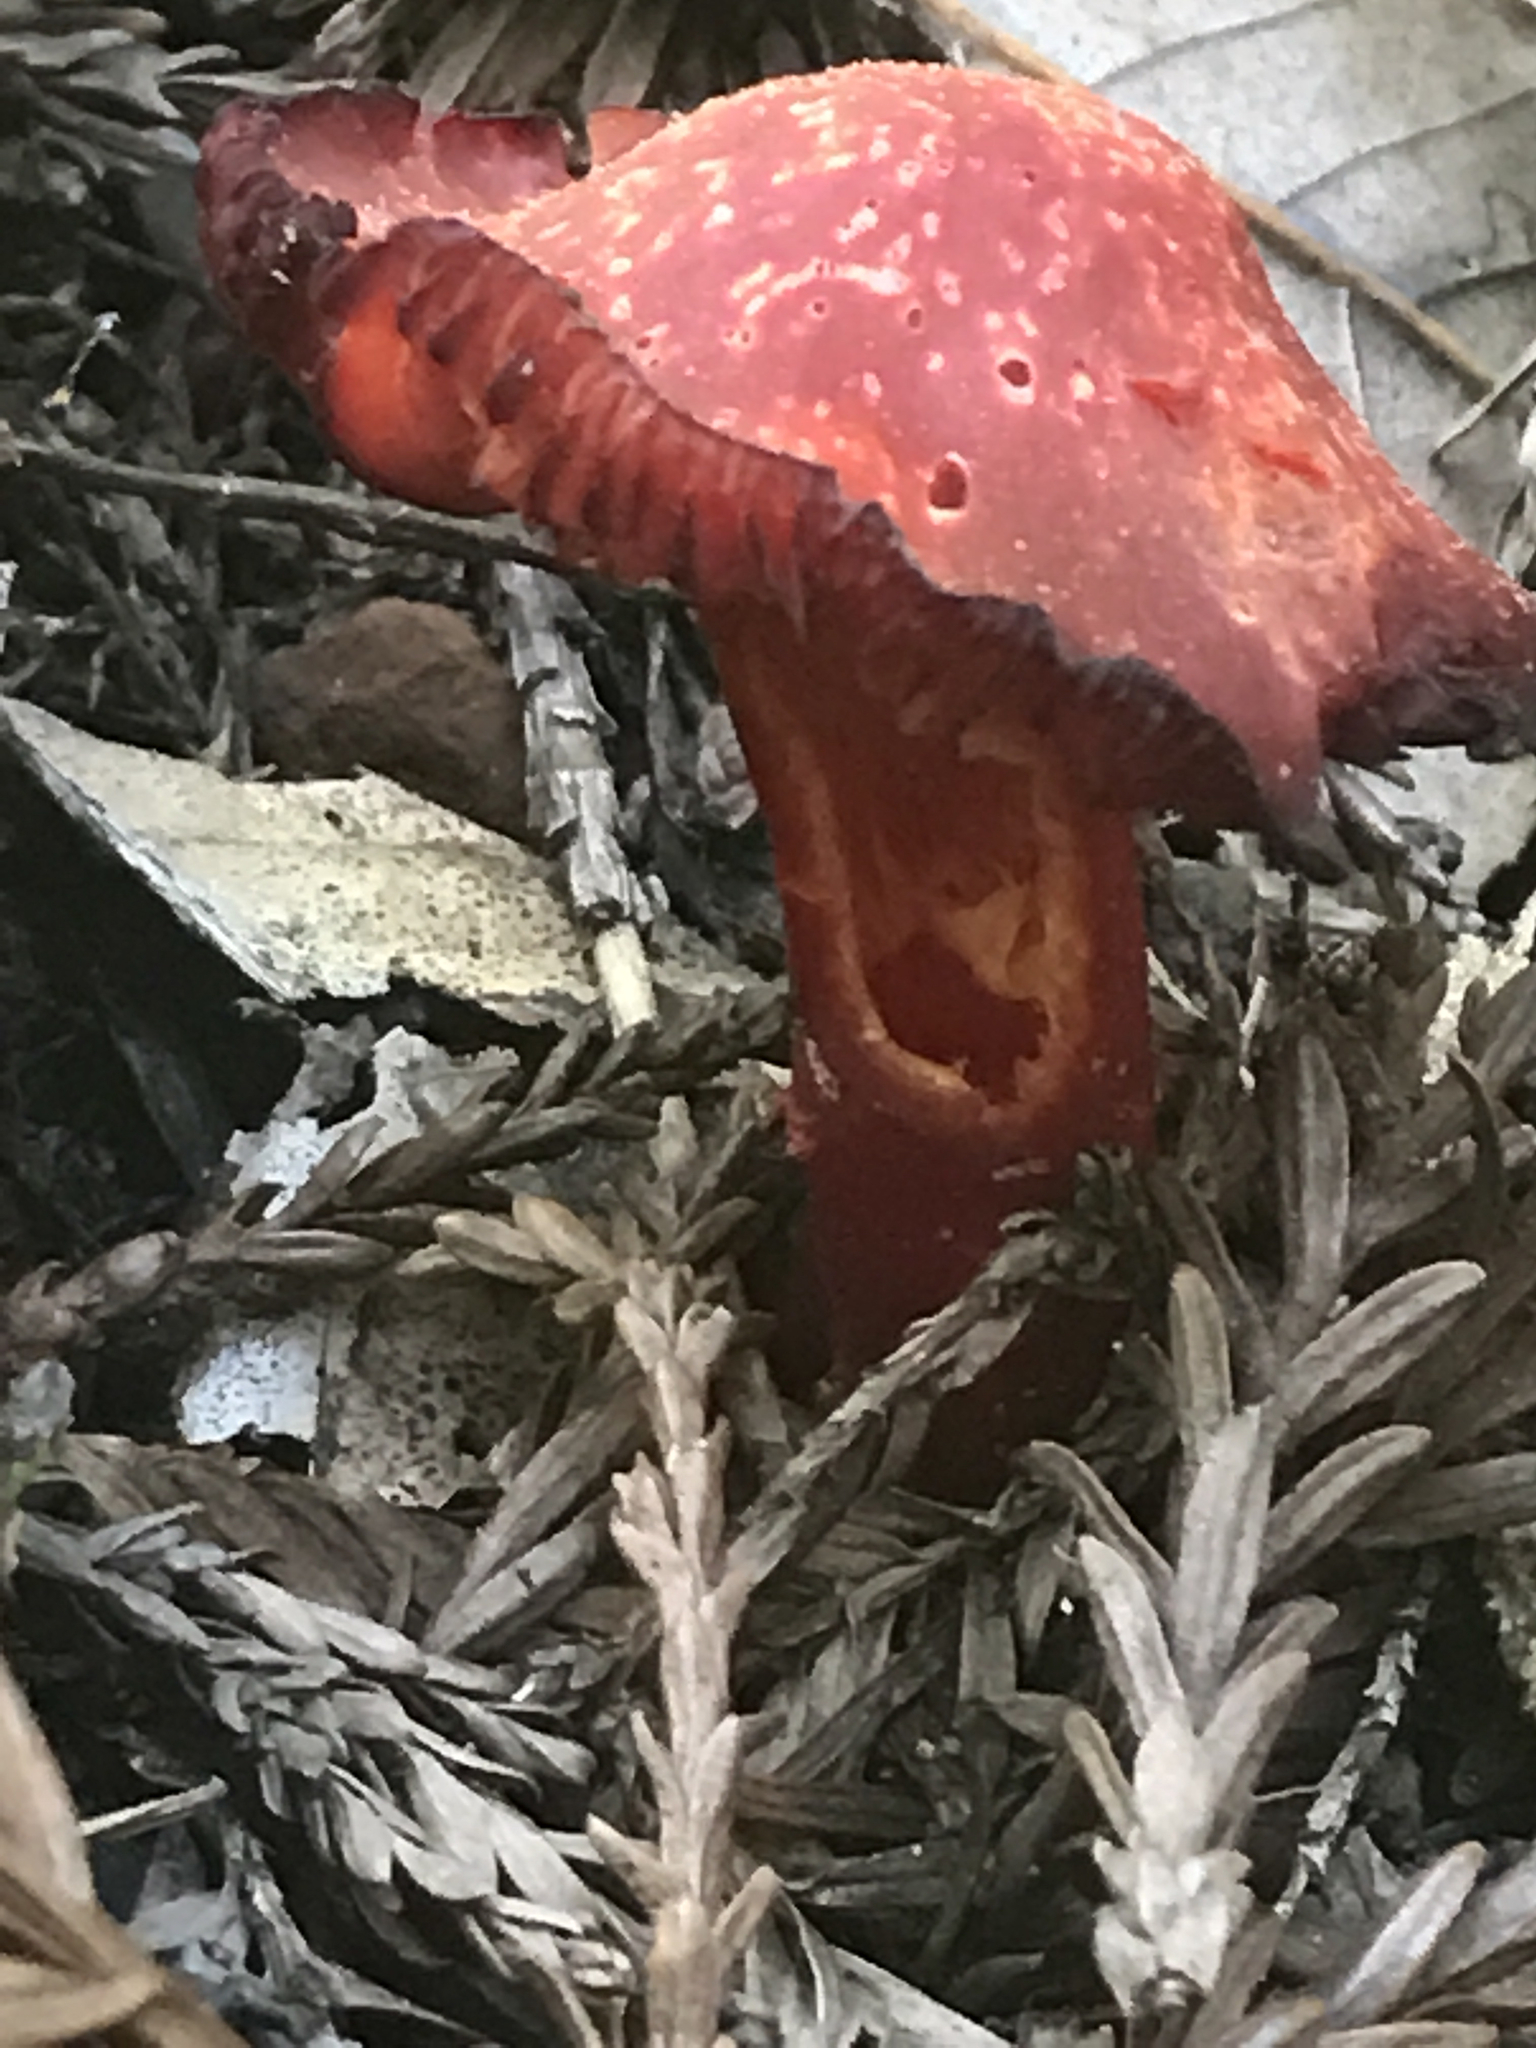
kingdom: Fungi
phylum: Basidiomycota
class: Agaricomycetes
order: Agaricales
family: Hygrophoraceae
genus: Hygrocybe
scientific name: Hygrocybe punicea
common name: Crimson waxcap
